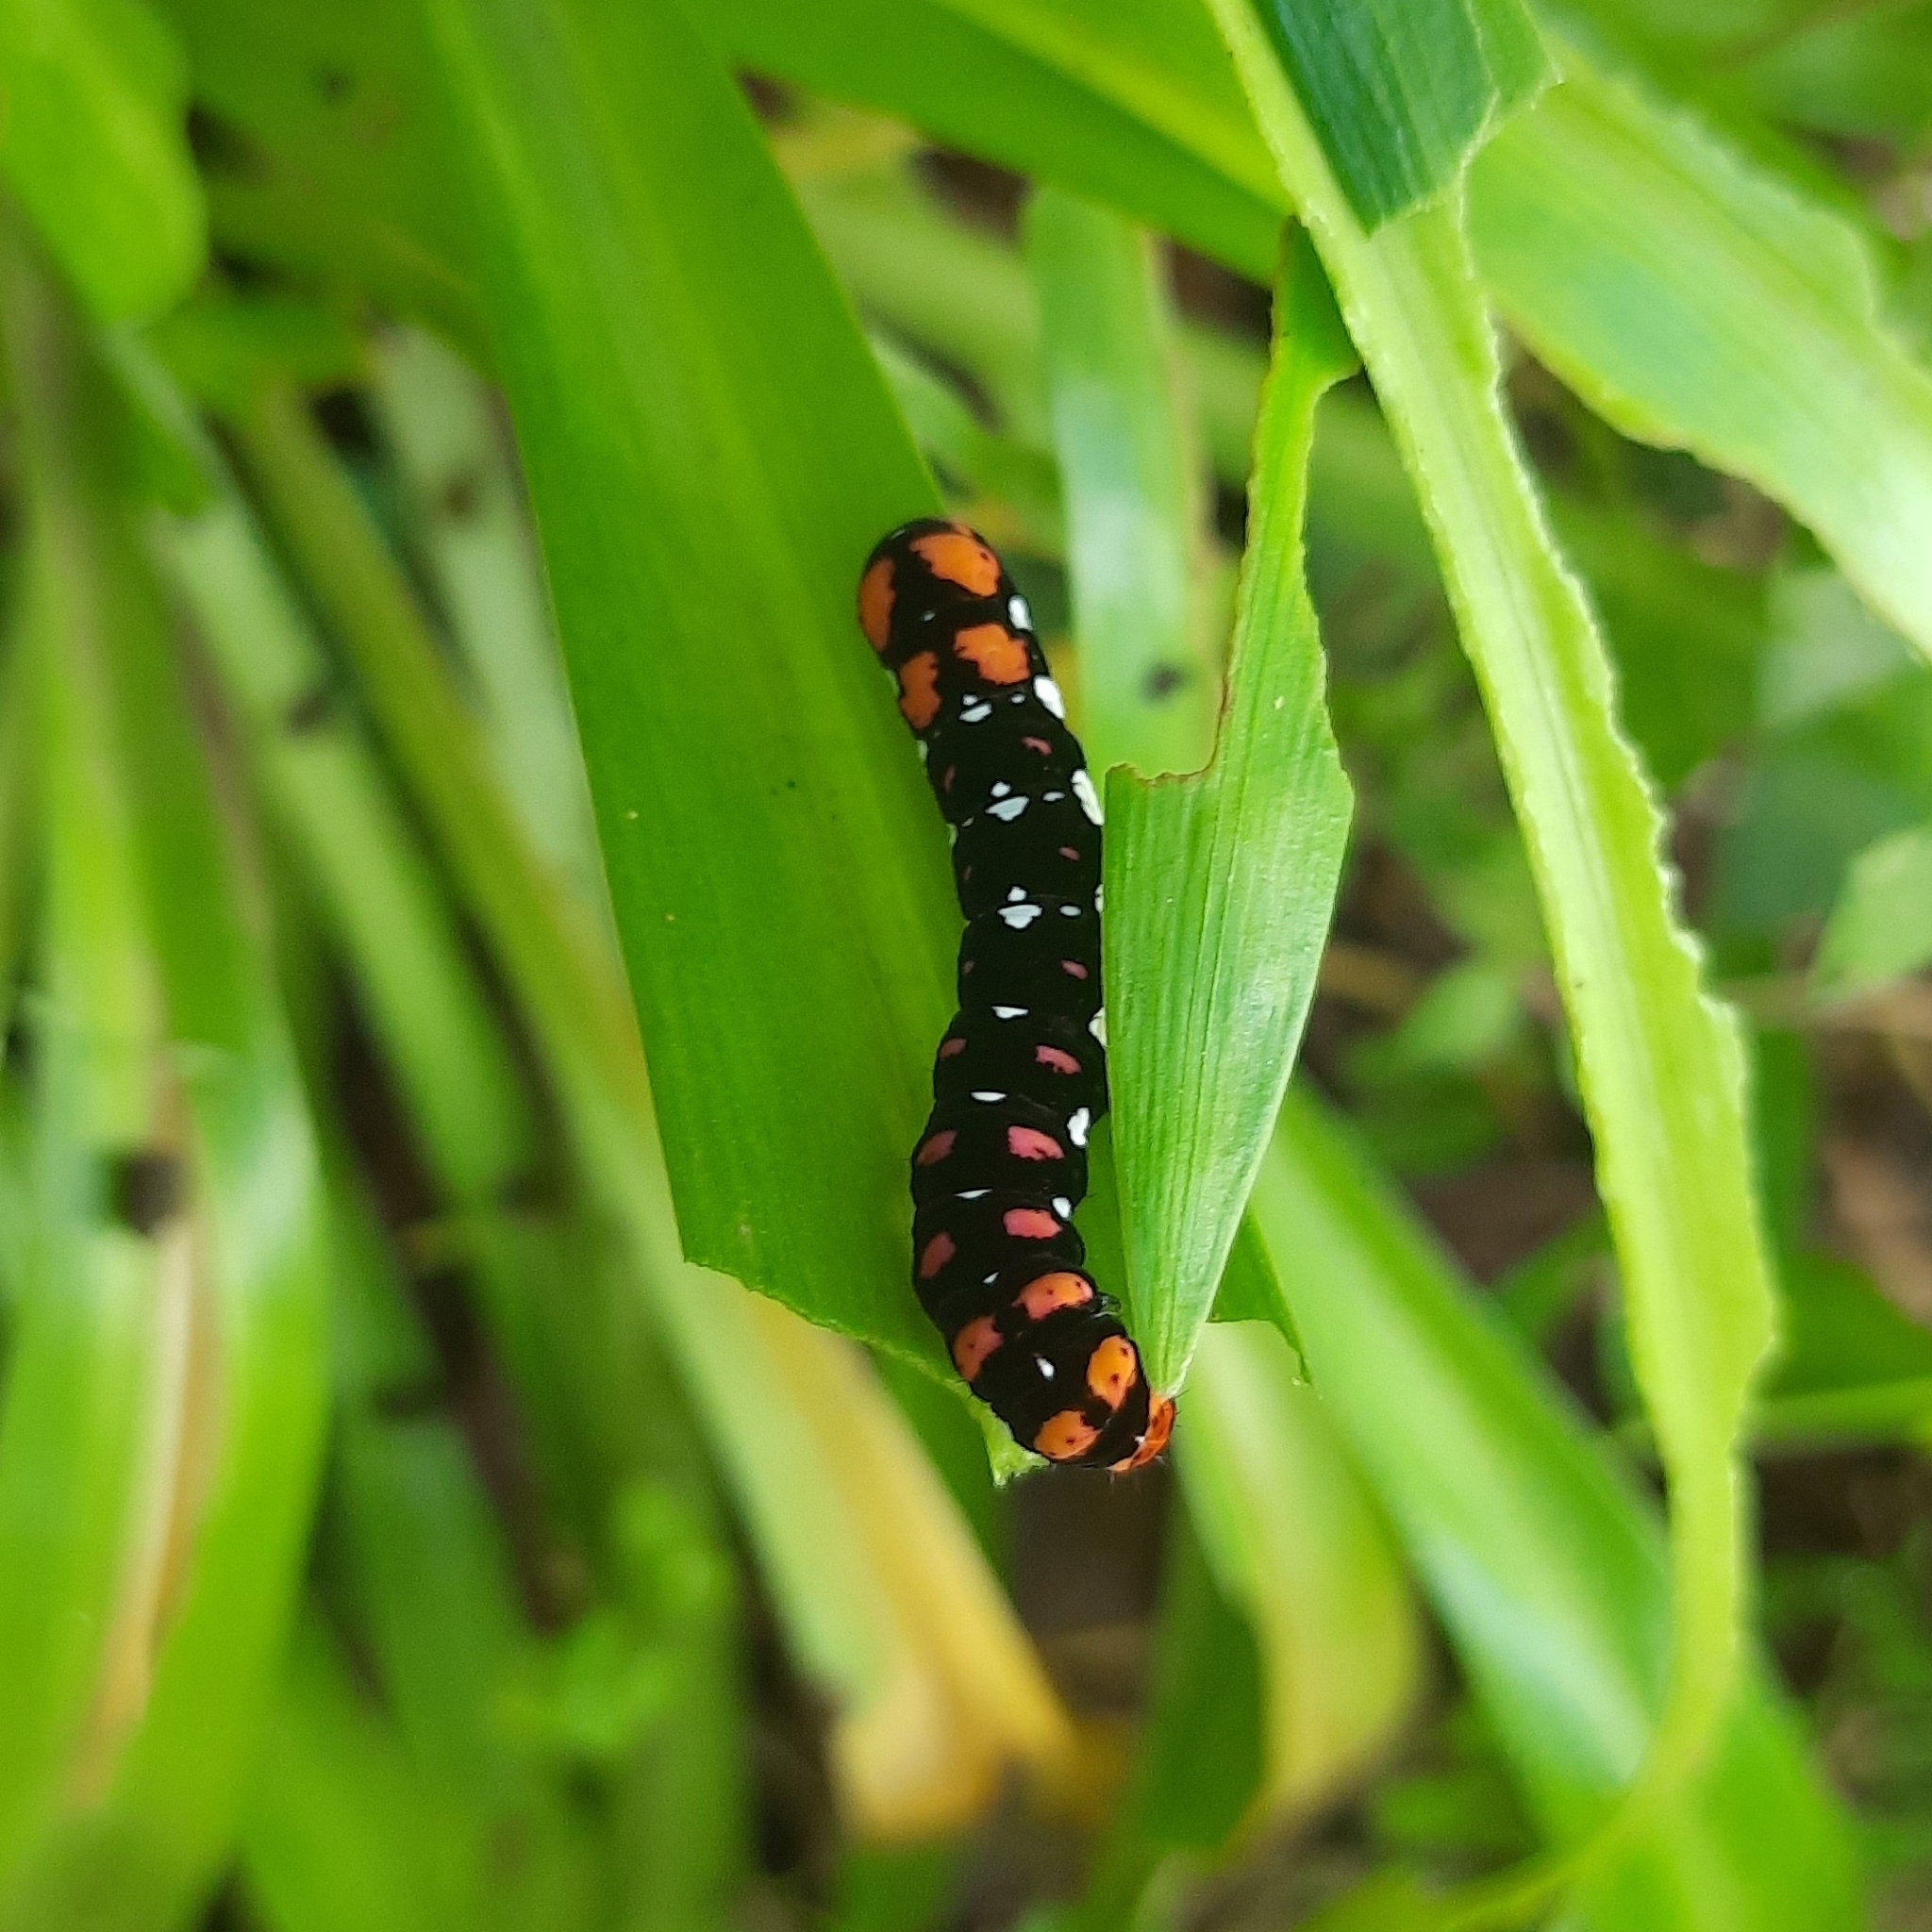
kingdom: Animalia
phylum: Arthropoda
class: Insecta
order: Lepidoptera
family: Noctuidae
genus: Polytela
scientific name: Polytela gloriosae
